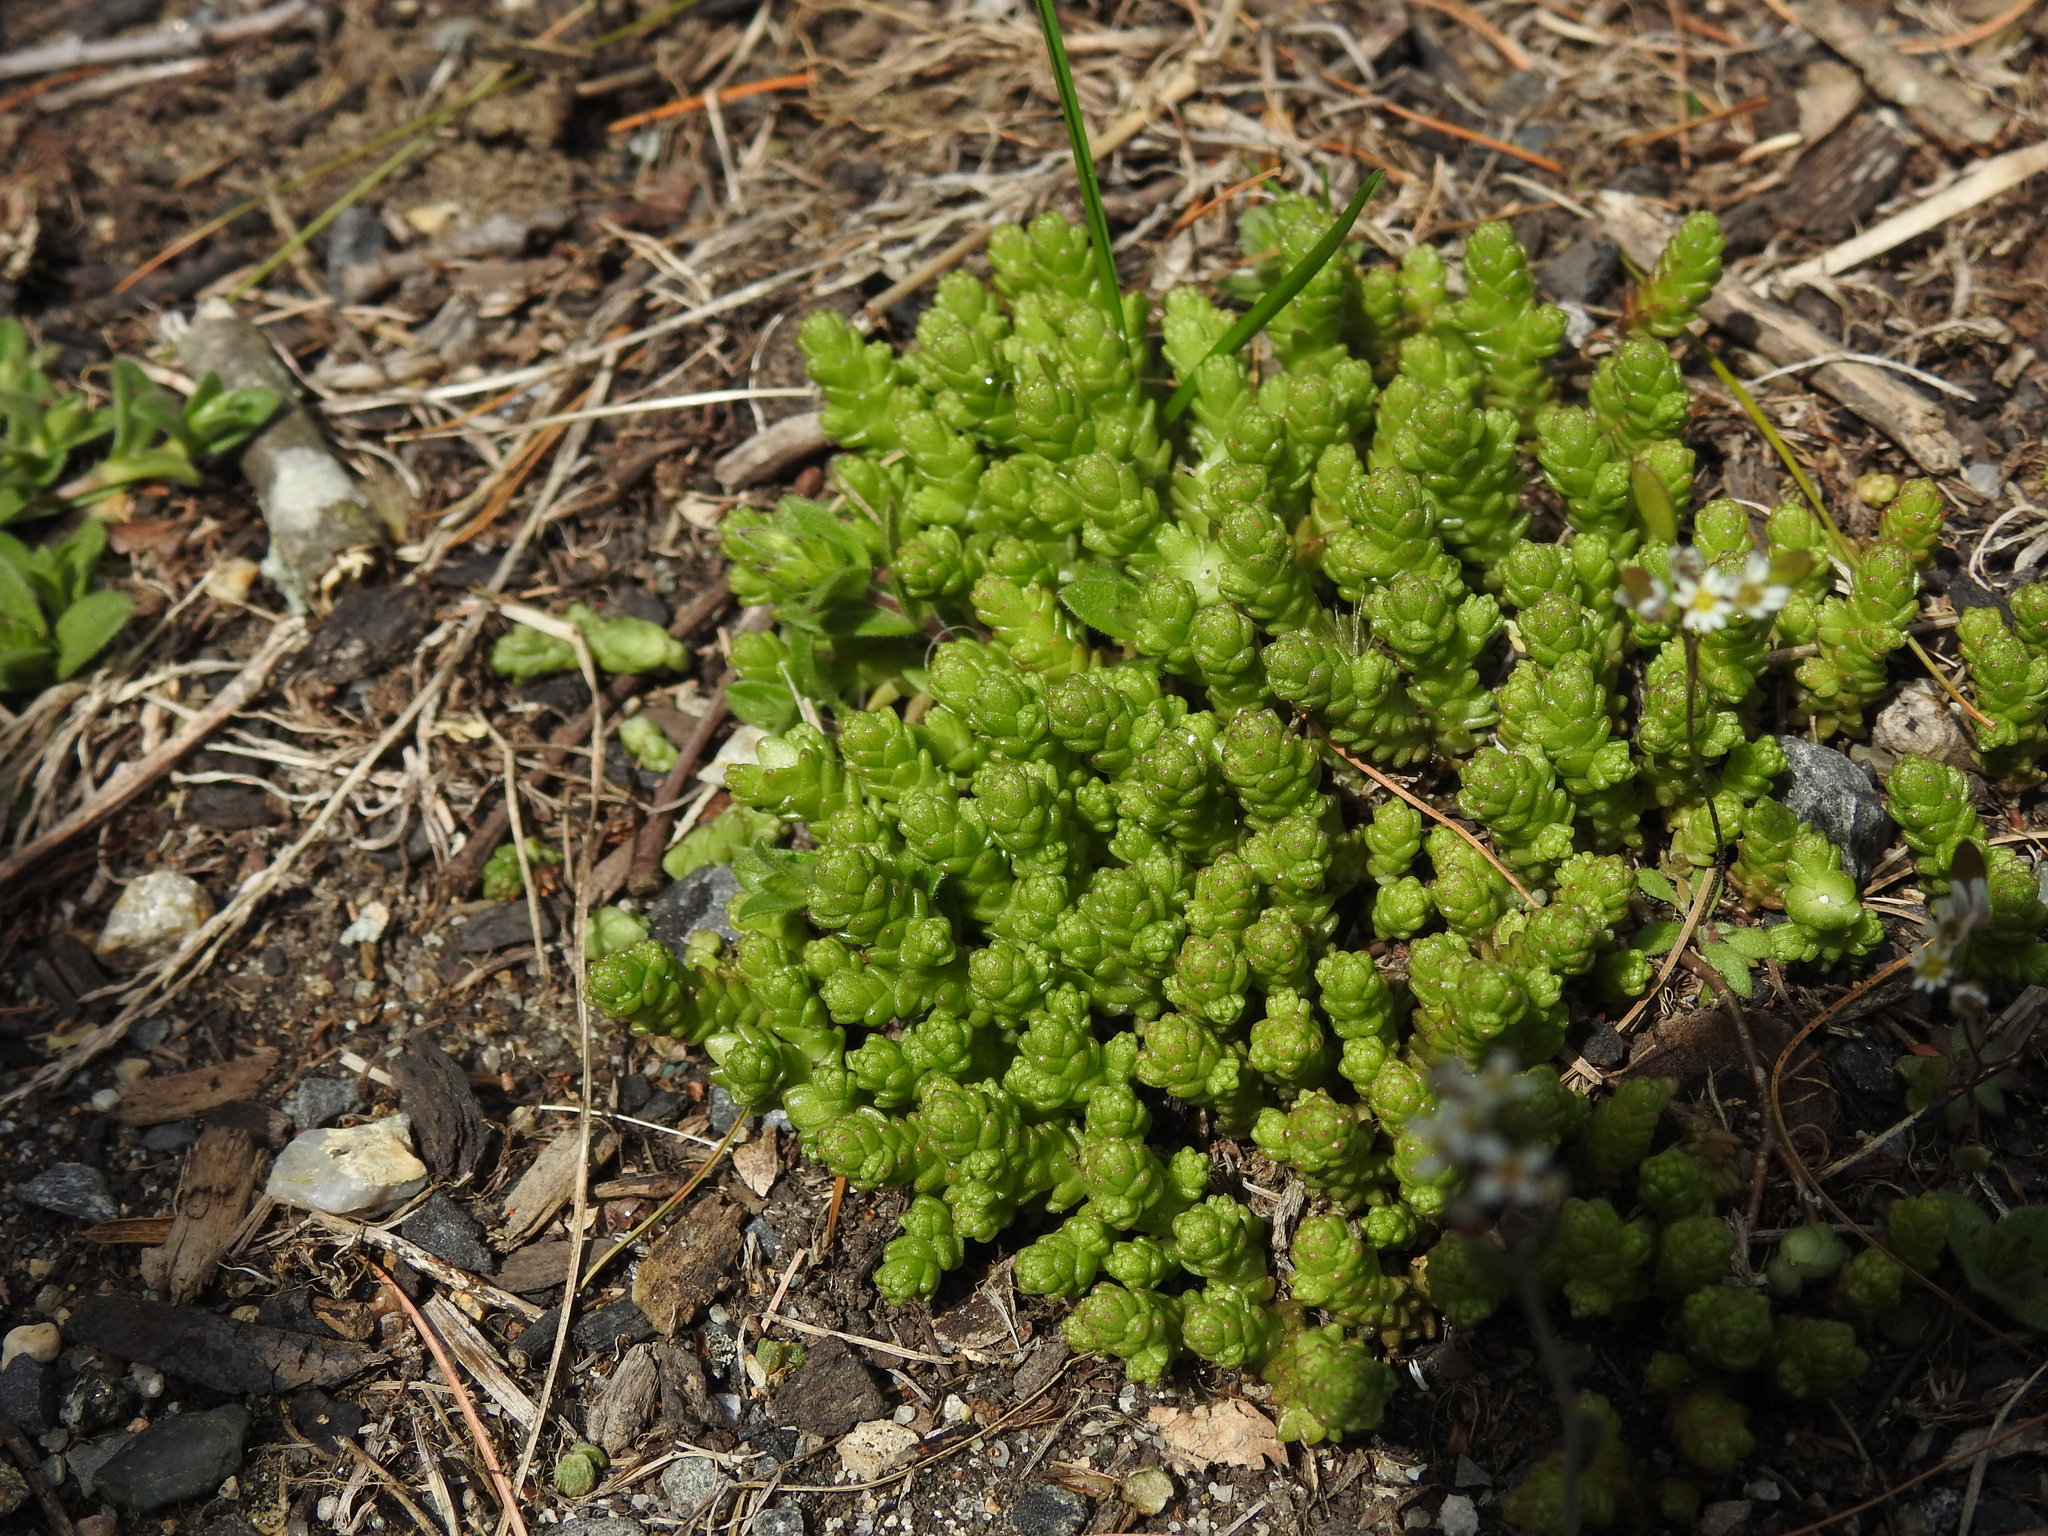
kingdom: Plantae
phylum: Tracheophyta
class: Magnoliopsida
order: Saxifragales
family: Crassulaceae
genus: Sedum
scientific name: Sedum acre
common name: Biting stonecrop
